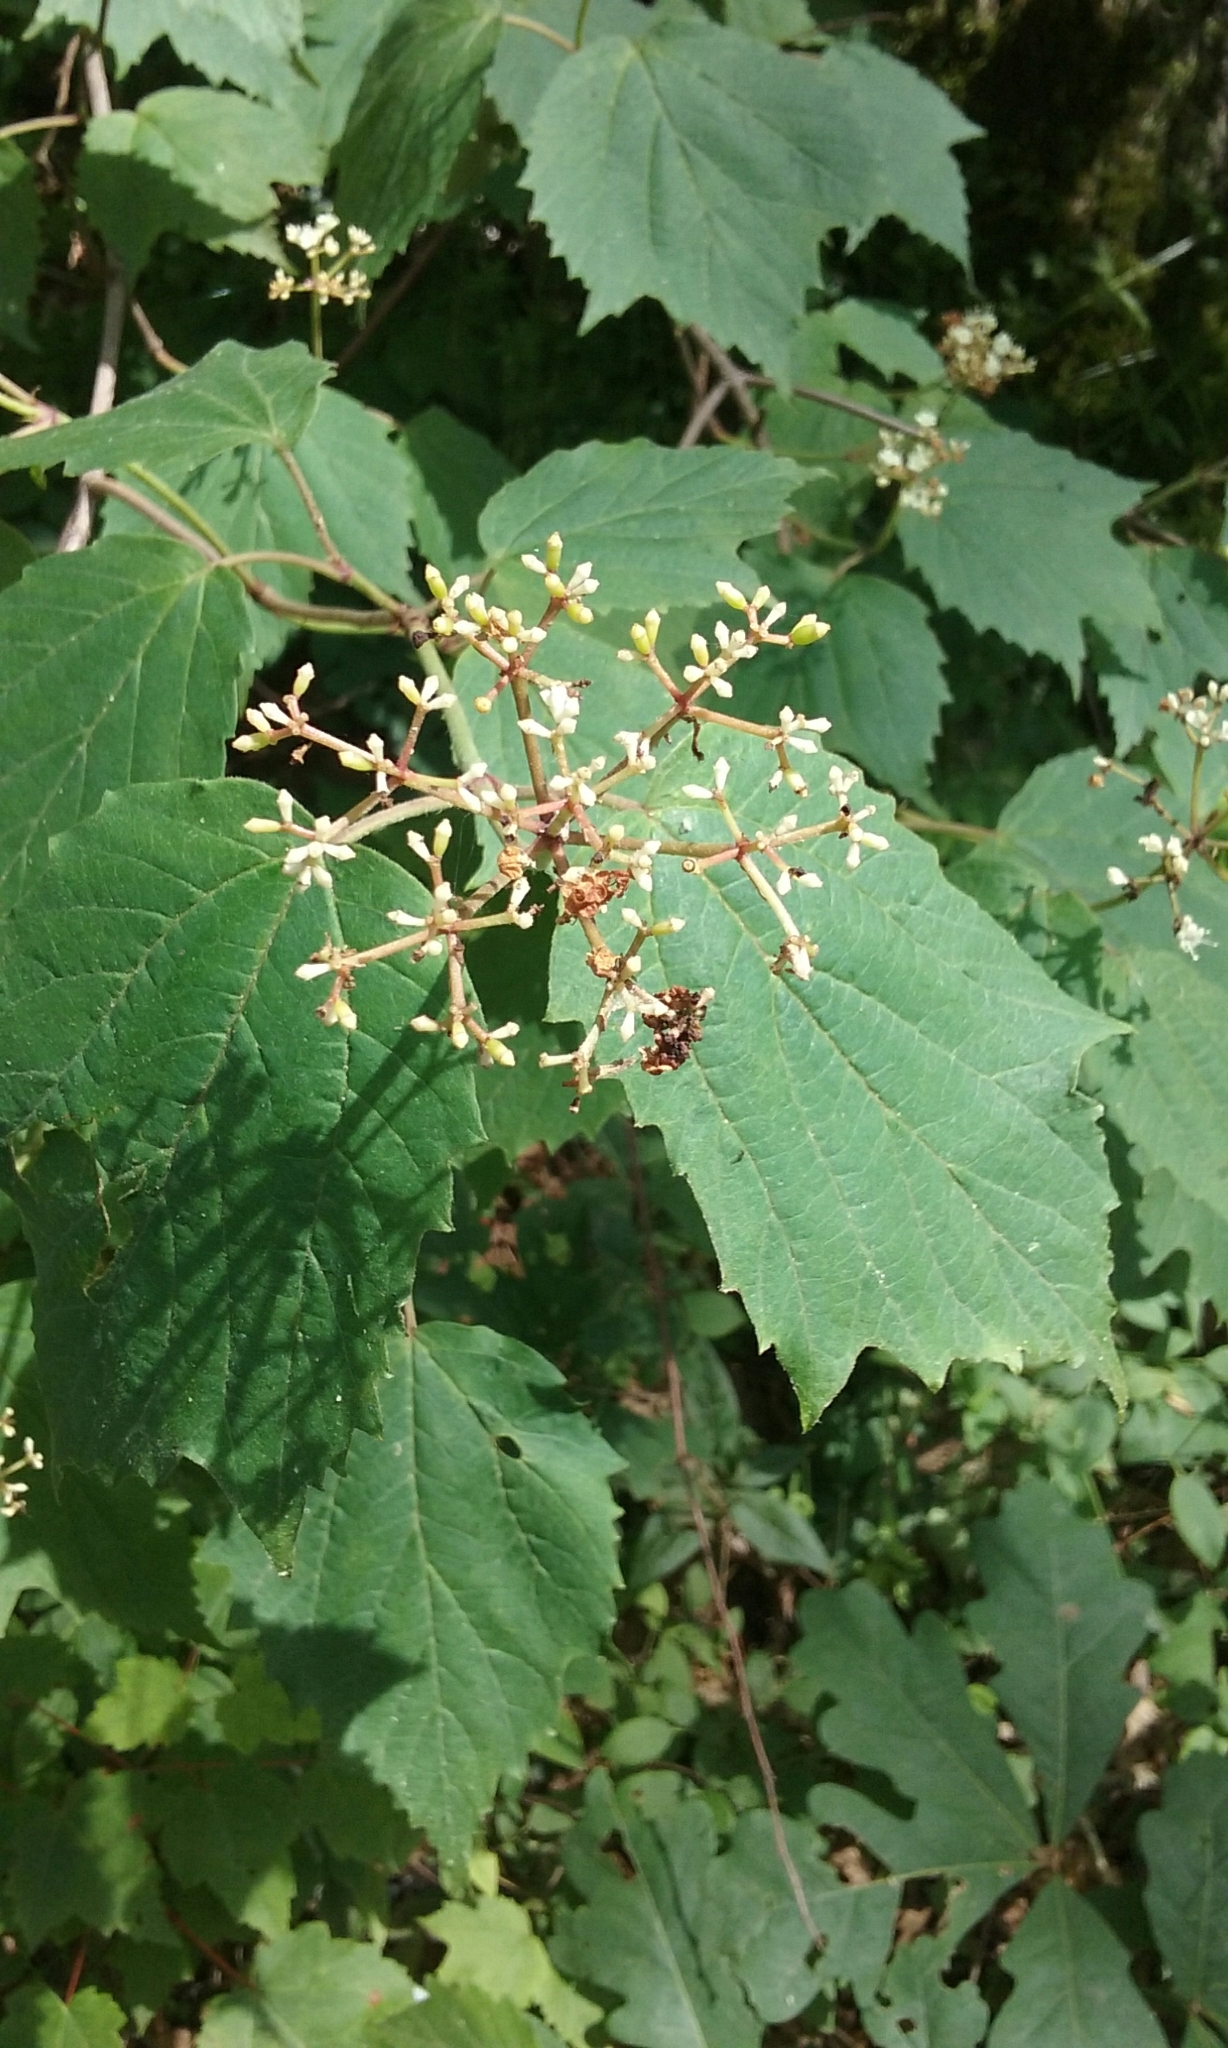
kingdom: Plantae
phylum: Tracheophyta
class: Magnoliopsida
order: Dipsacales
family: Viburnaceae
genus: Viburnum
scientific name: Viburnum acerifolium
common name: Dockmackie
